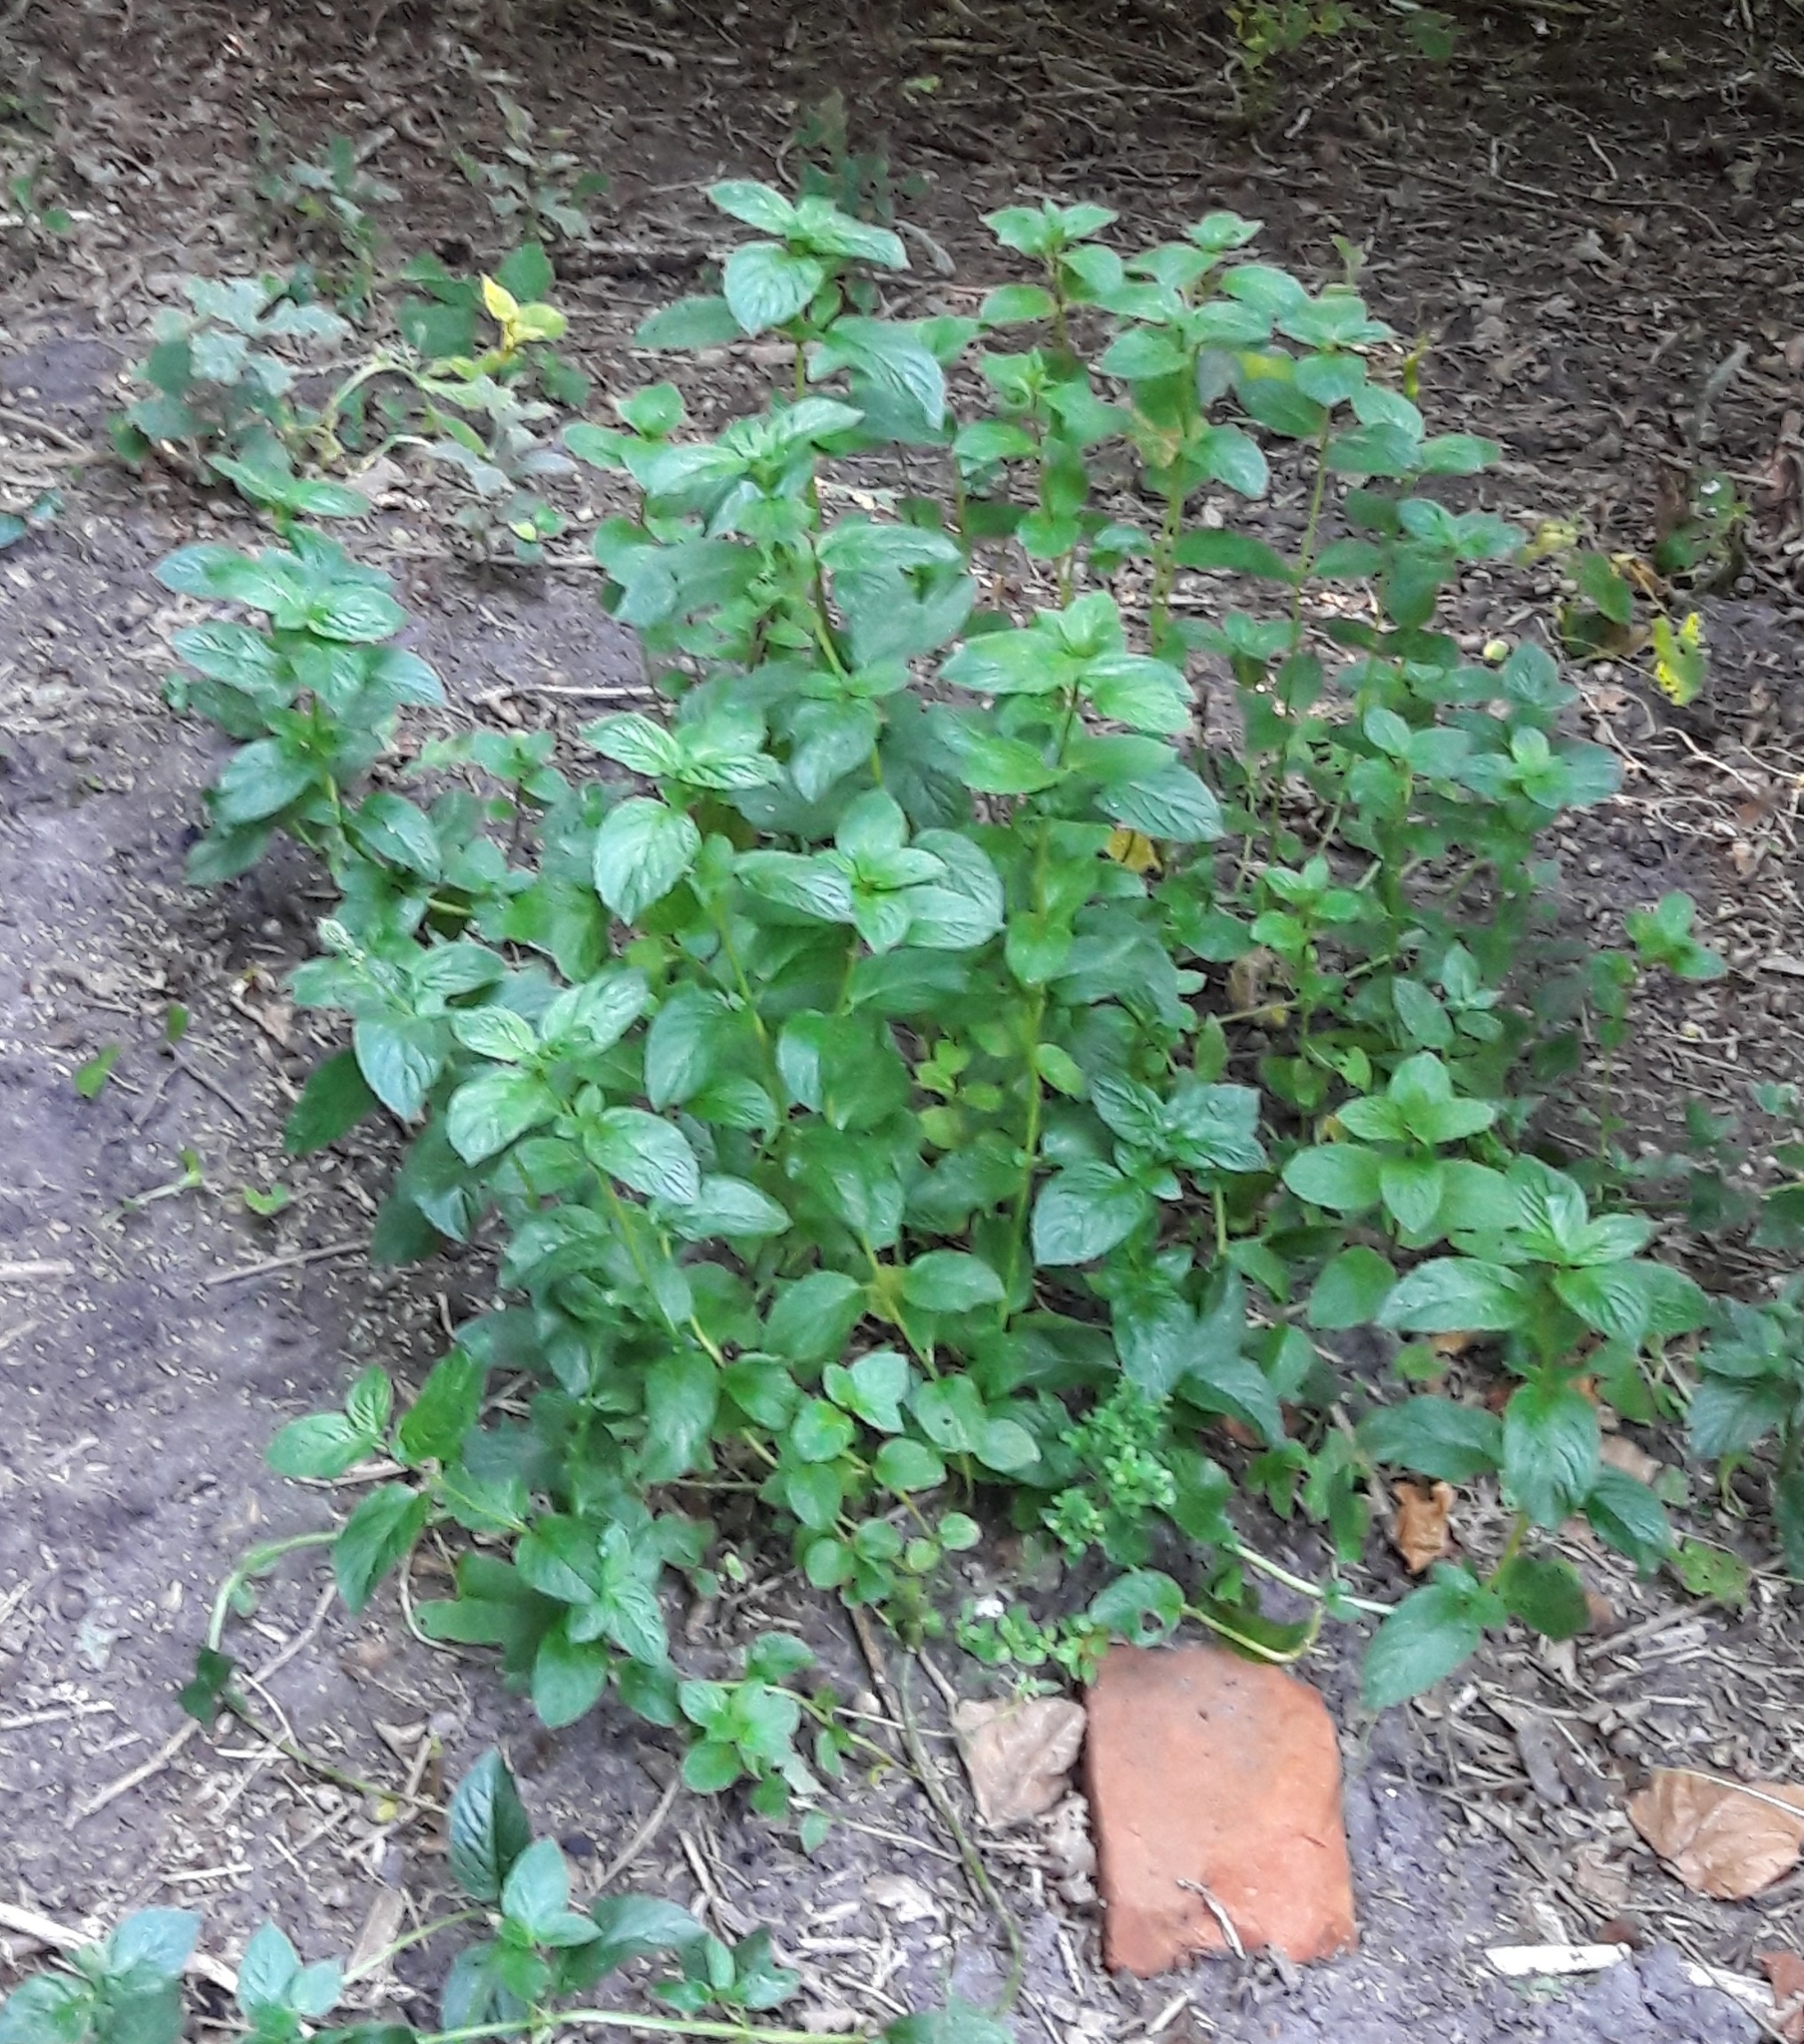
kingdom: Plantae
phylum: Tracheophyta
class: Magnoliopsida
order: Lamiales
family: Lamiaceae
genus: Mentha
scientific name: Mentha piperita
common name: Peppermint
